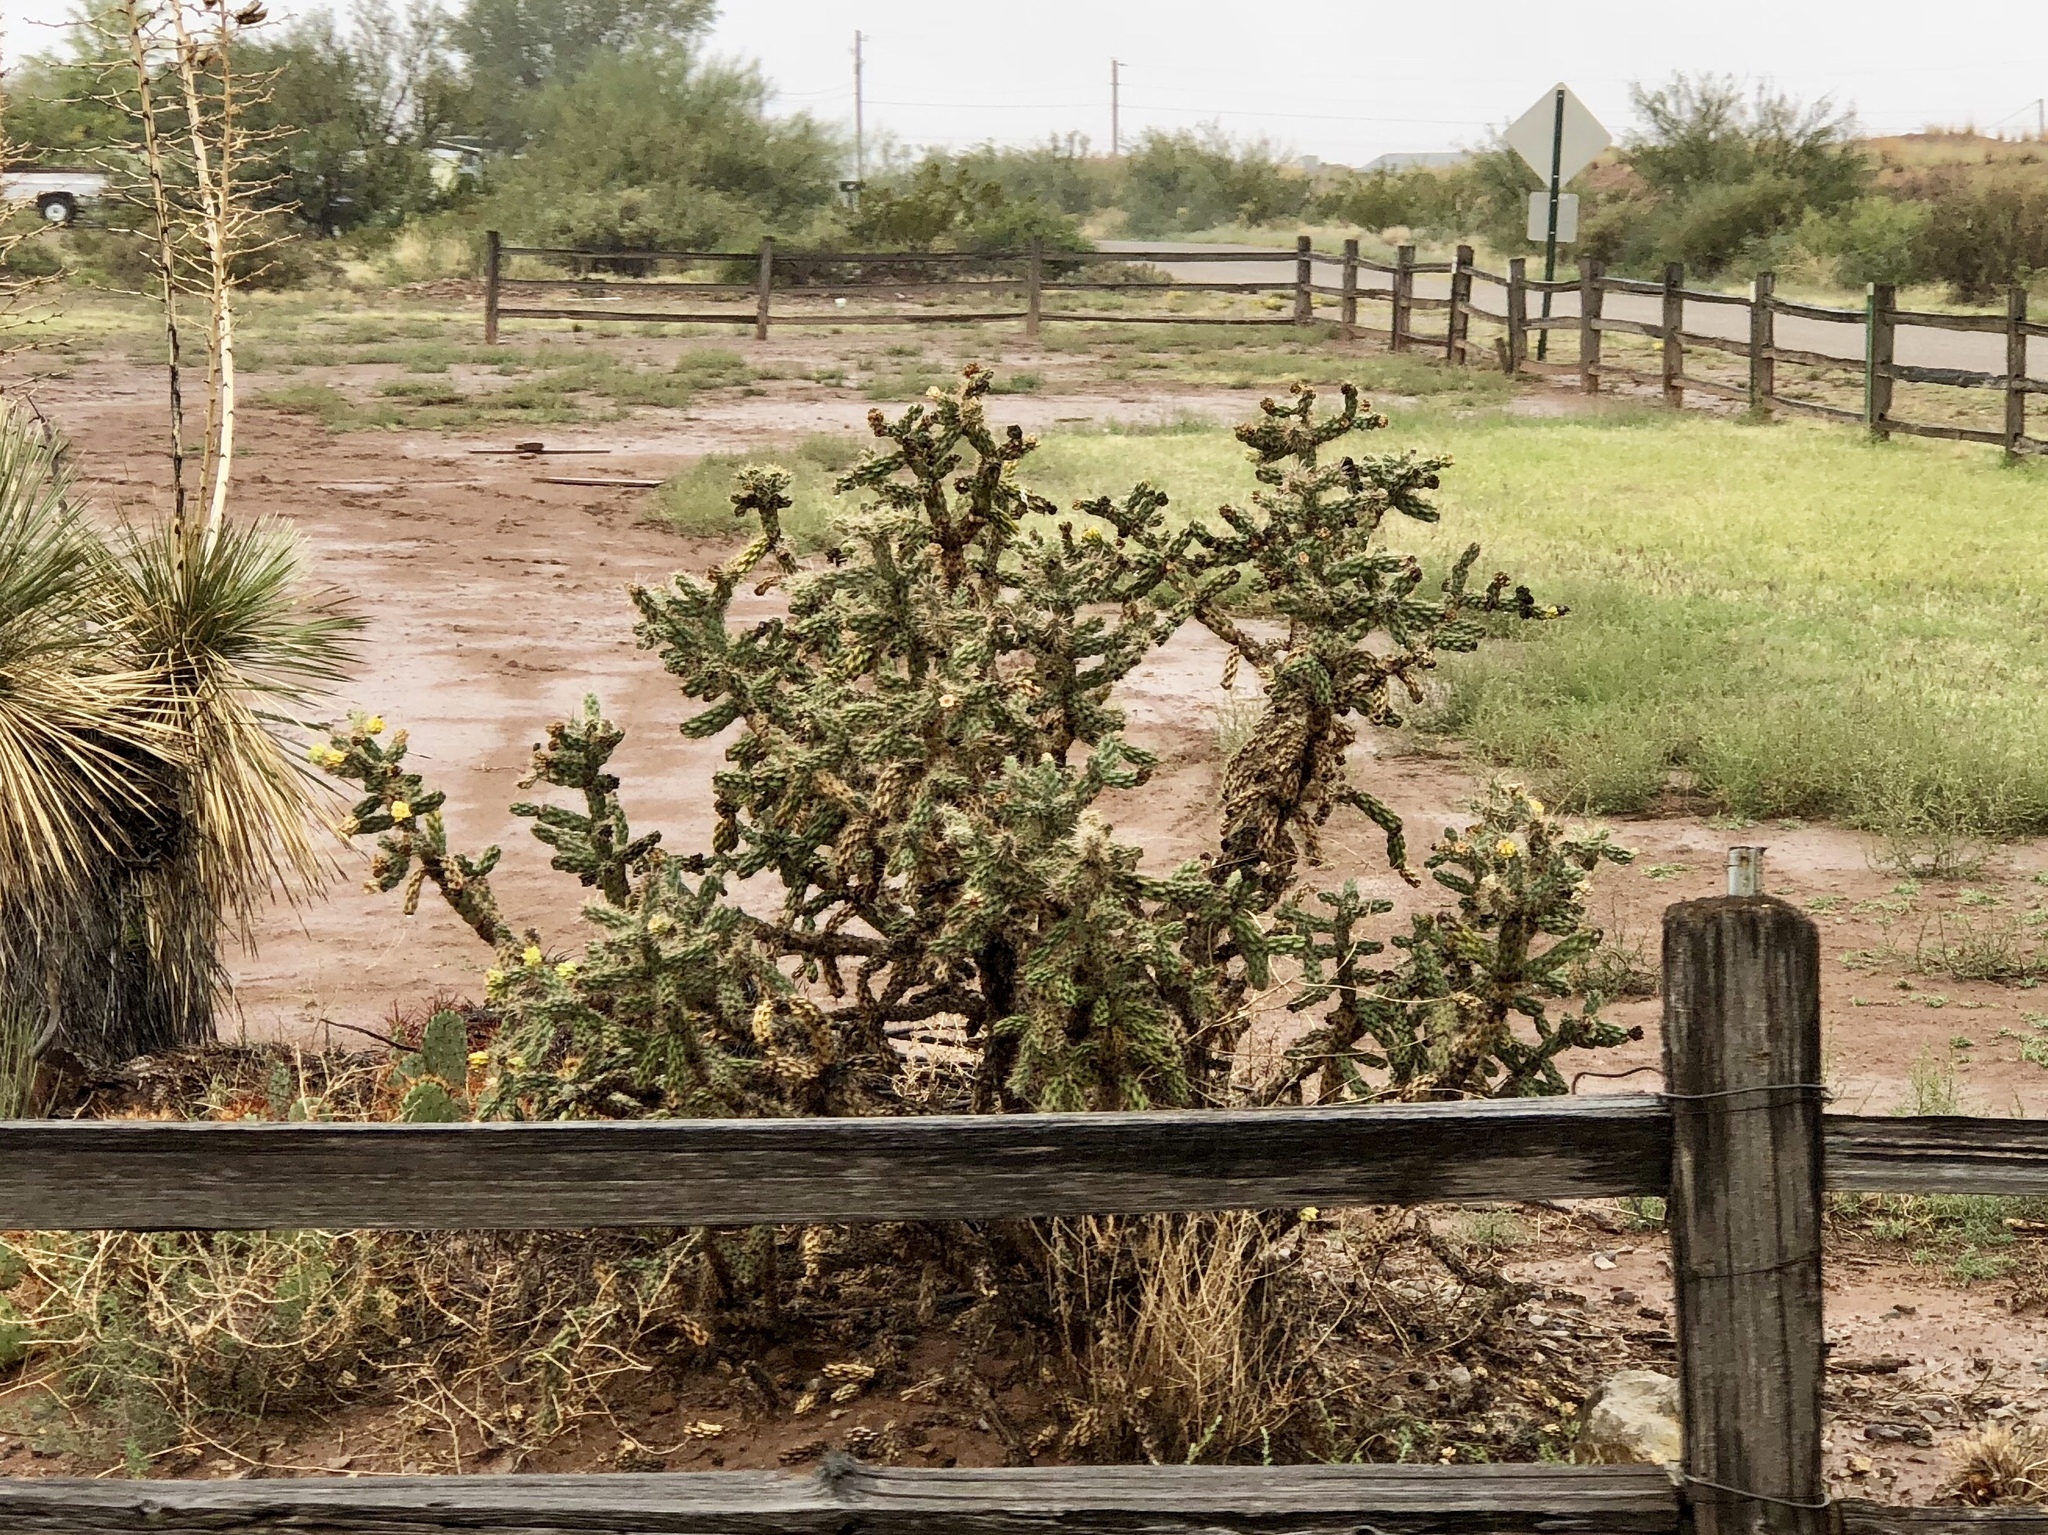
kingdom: Plantae
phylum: Tracheophyta
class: Magnoliopsida
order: Caryophyllales
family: Cactaceae
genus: Cylindropuntia
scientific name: Cylindropuntia imbricata
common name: Candelabrum cactus
